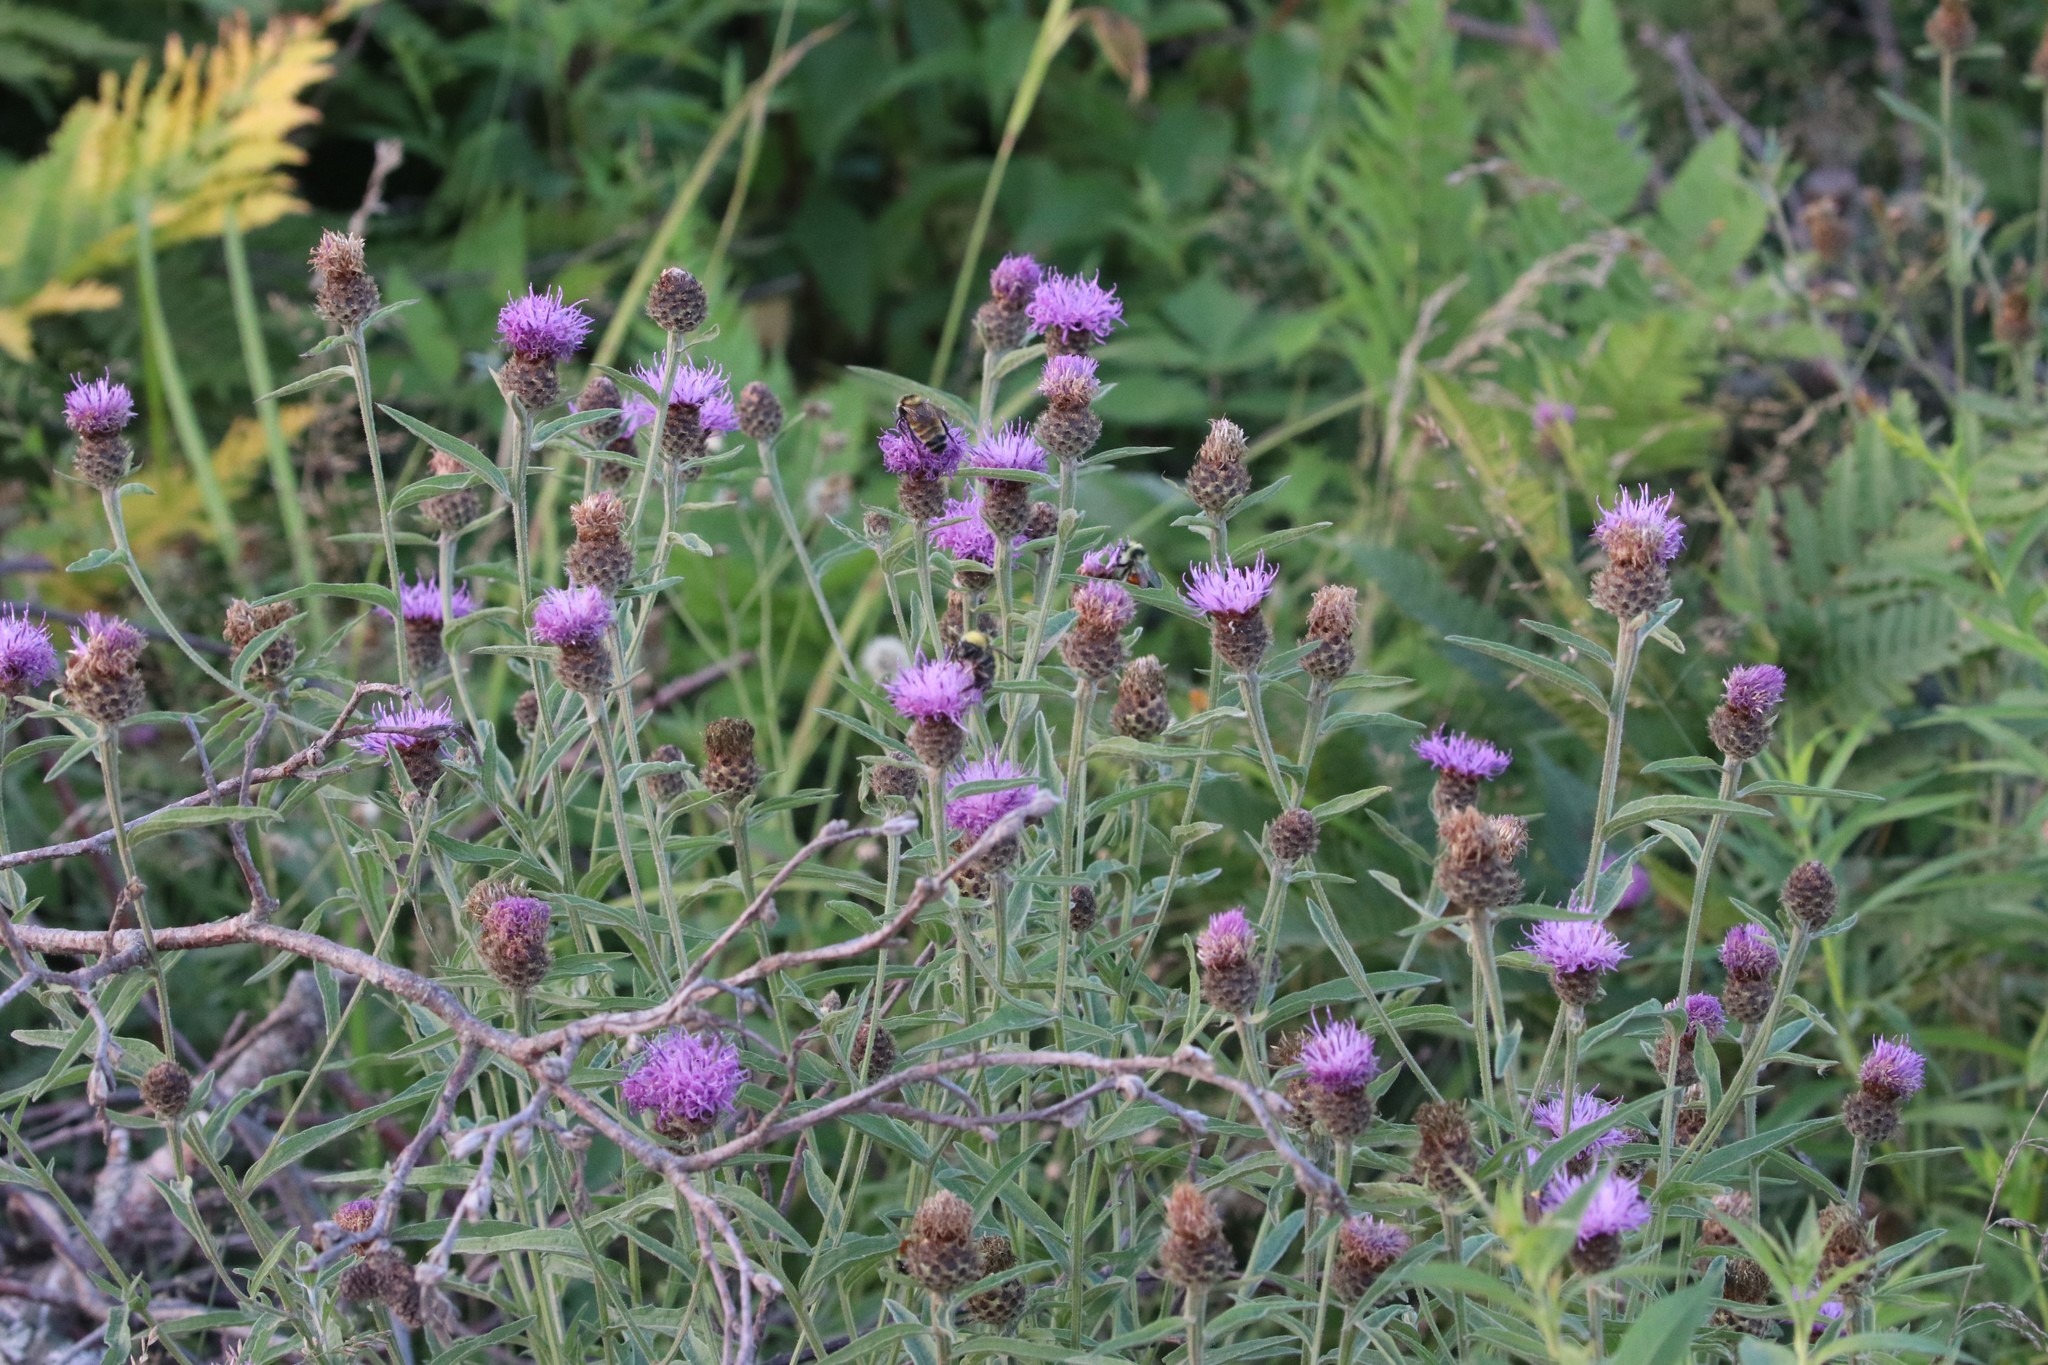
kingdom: Plantae
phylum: Tracheophyta
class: Magnoliopsida
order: Asterales
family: Asteraceae
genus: Centaurea
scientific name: Centaurea nigra
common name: Lesser knapweed
